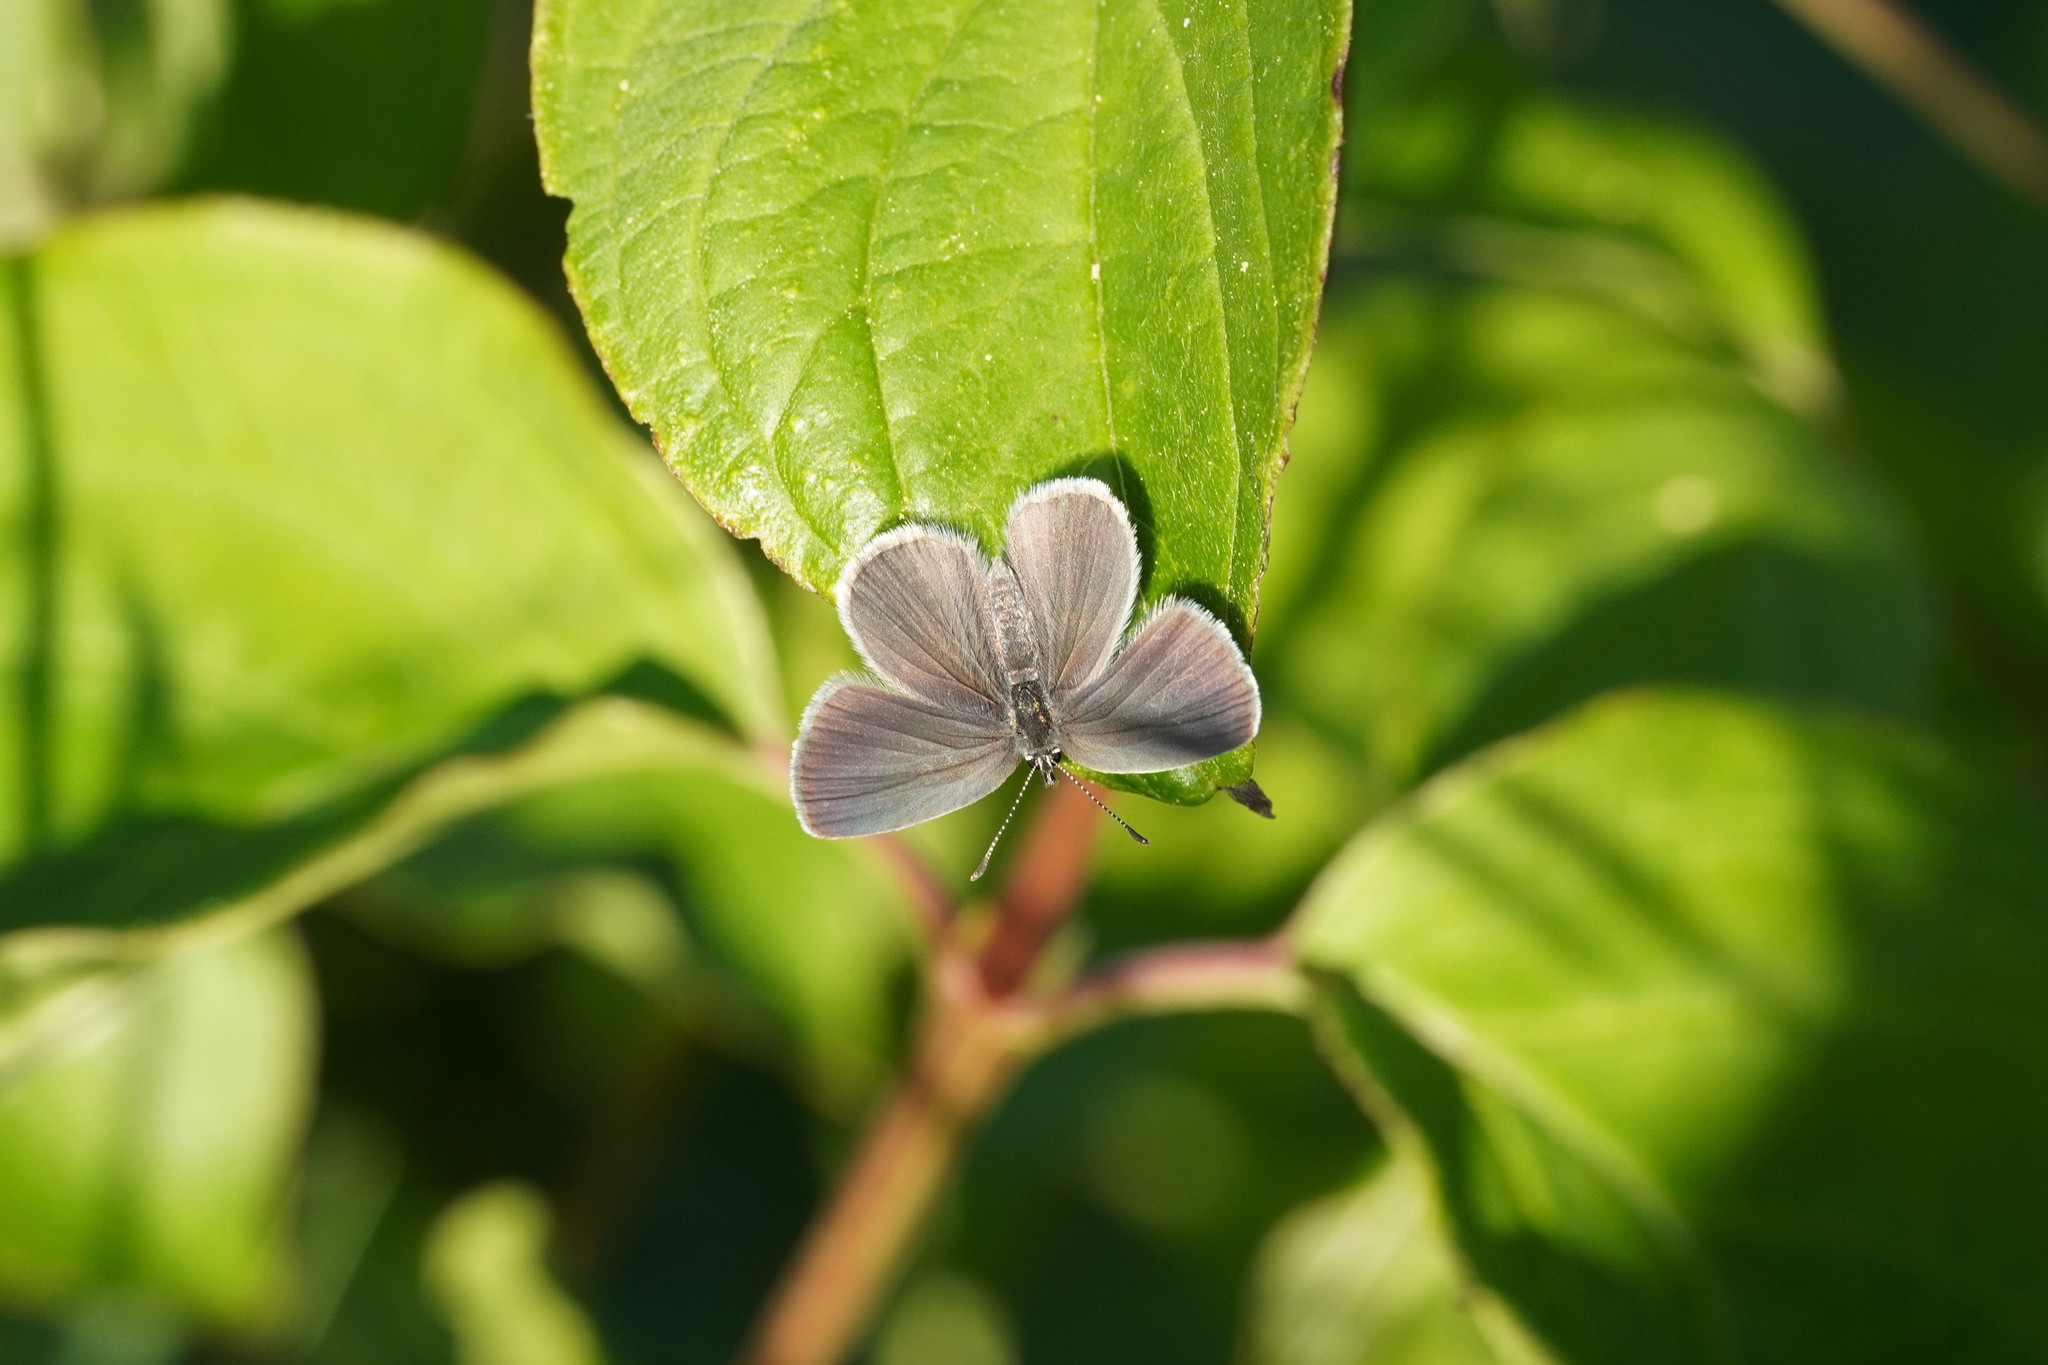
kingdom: Animalia
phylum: Arthropoda
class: Insecta
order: Lepidoptera
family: Lycaenidae
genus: Cupido
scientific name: Cupido minimus
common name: Small blue
